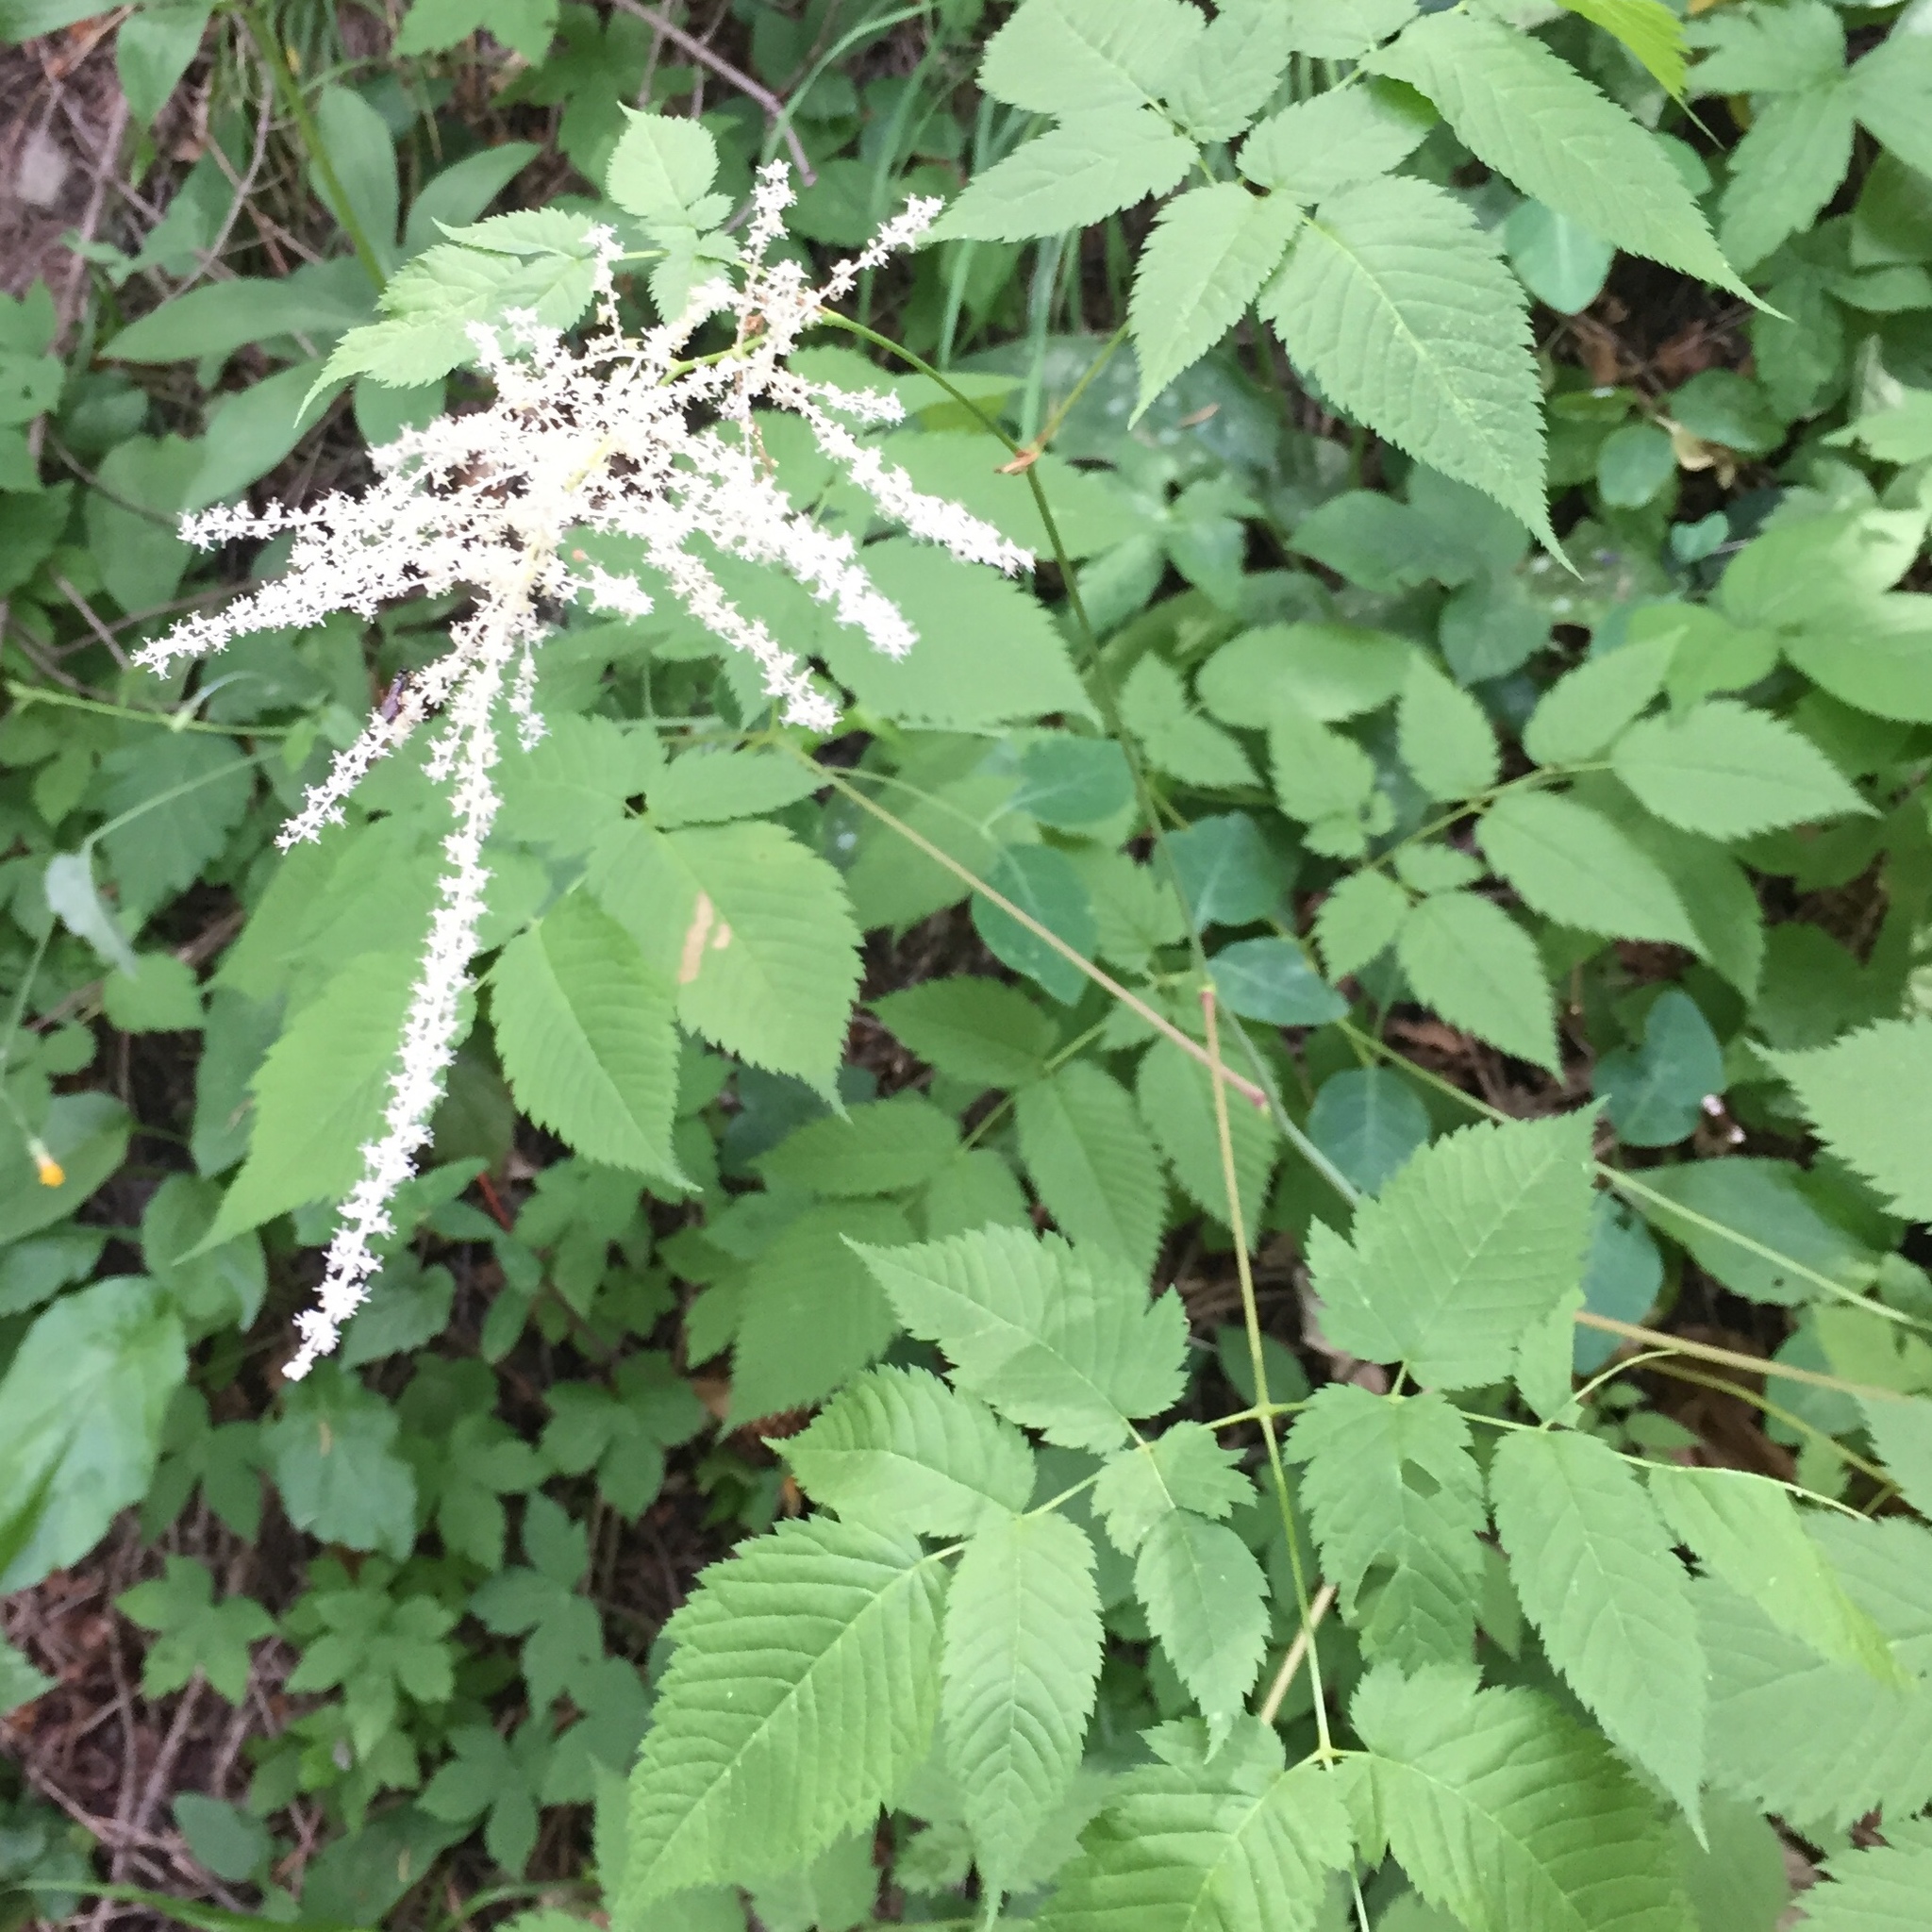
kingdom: Plantae
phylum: Tracheophyta
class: Magnoliopsida
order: Rosales
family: Rosaceae
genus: Aruncus
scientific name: Aruncus dioicus
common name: Buck's-beard
